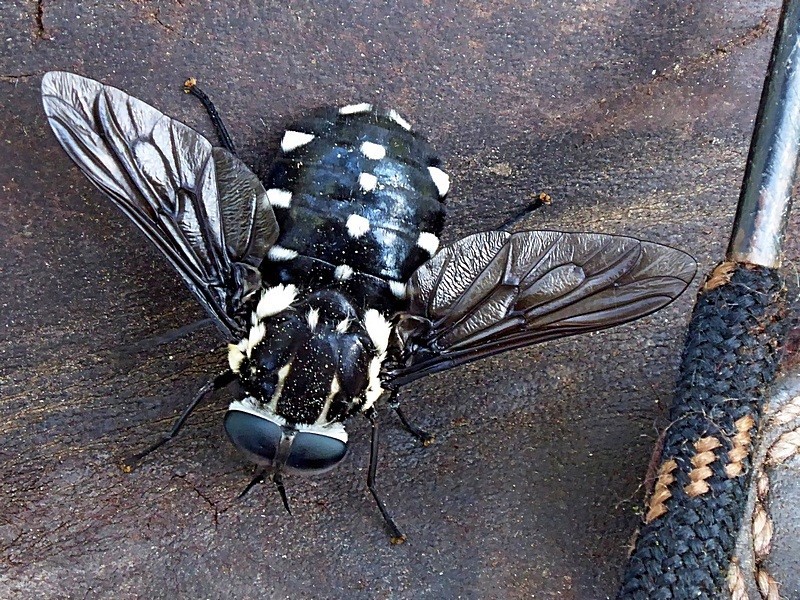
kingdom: Animalia
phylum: Arthropoda
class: Insecta
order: Diptera
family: Tabanidae
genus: Triclista
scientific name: Triclista guttata
